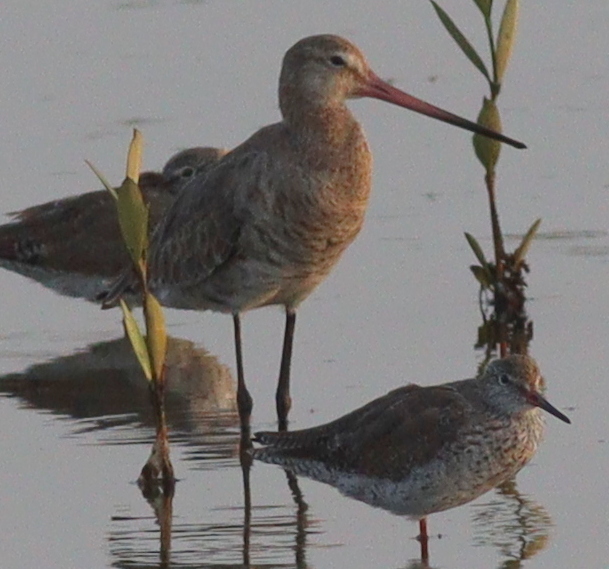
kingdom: Animalia
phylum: Chordata
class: Aves
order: Charadriiformes
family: Scolopacidae
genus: Limosa
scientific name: Limosa limosa
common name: Black-tailed godwit
